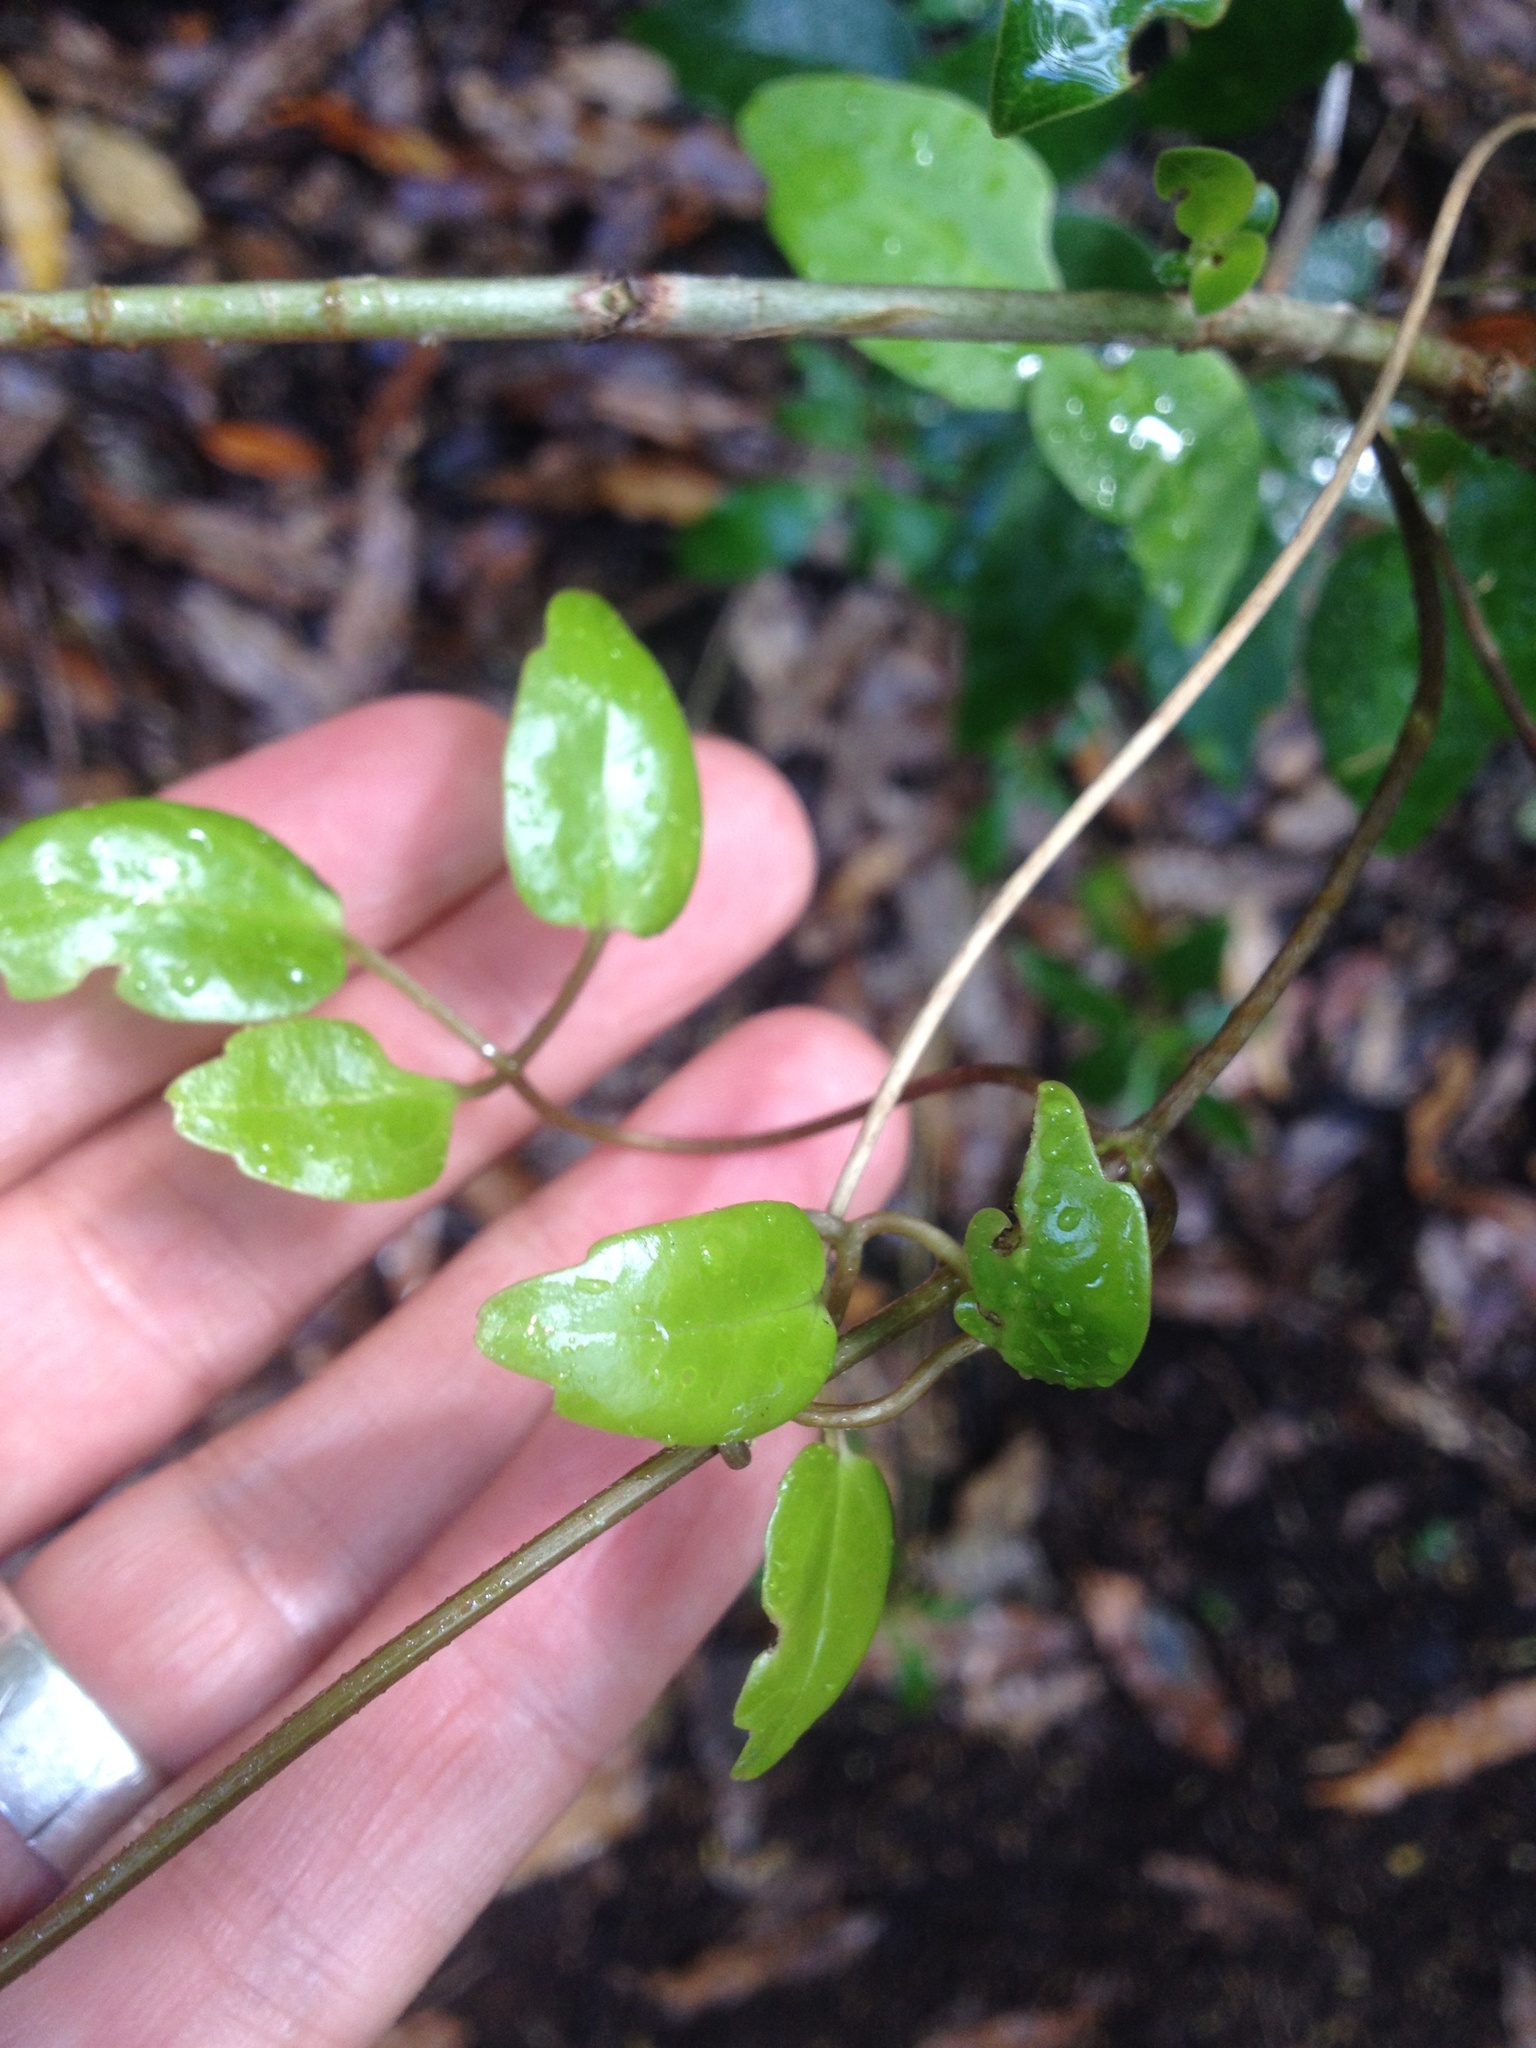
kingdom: Plantae
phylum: Tracheophyta
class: Magnoliopsida
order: Ranunculales
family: Ranunculaceae
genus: Clematis
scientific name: Clematis paniculata
